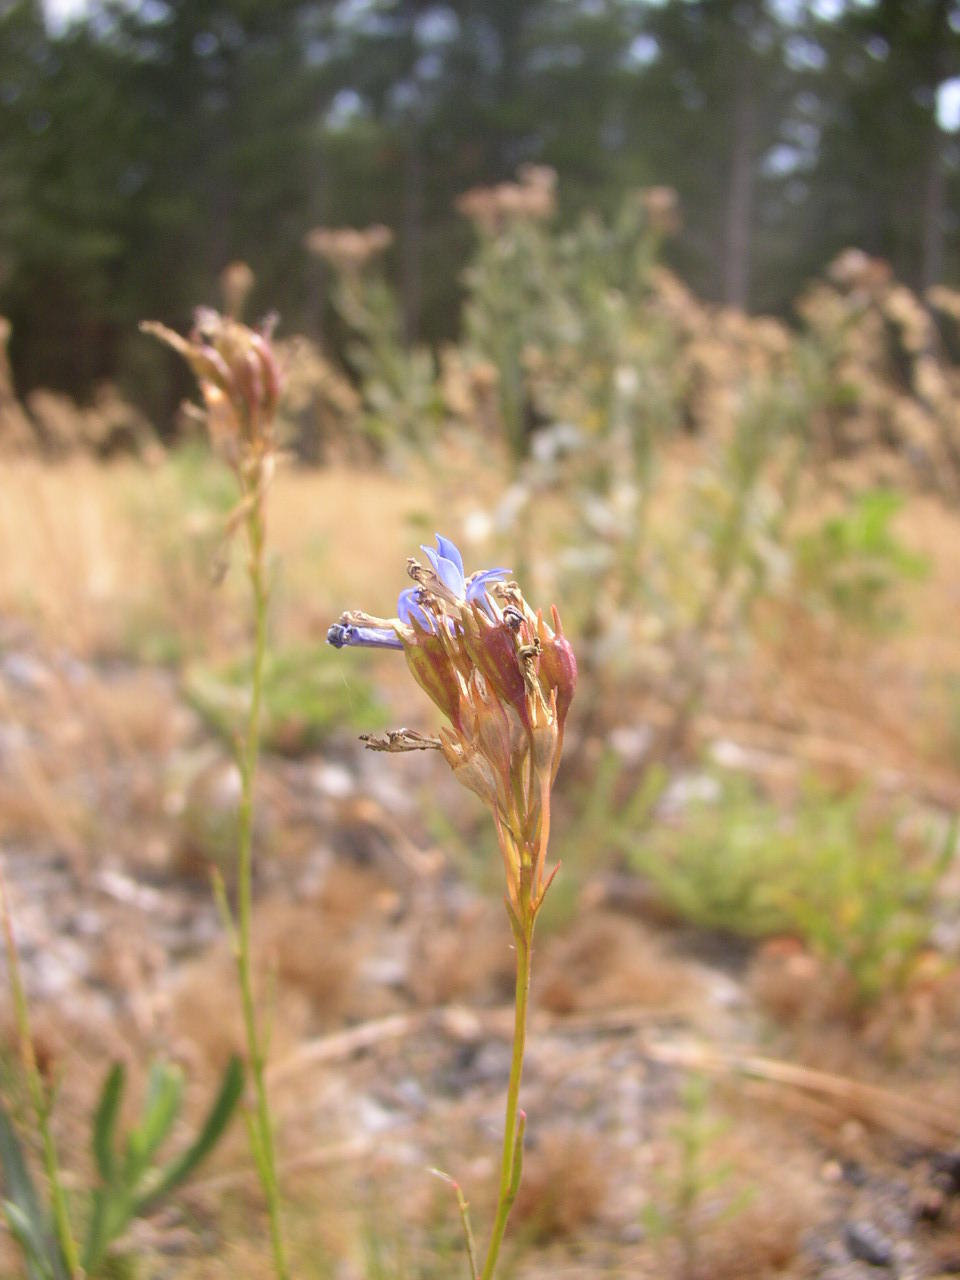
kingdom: Plantae
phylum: Tracheophyta
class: Magnoliopsida
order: Asterales
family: Campanulaceae
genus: Lobelia
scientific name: Lobelia comosa
